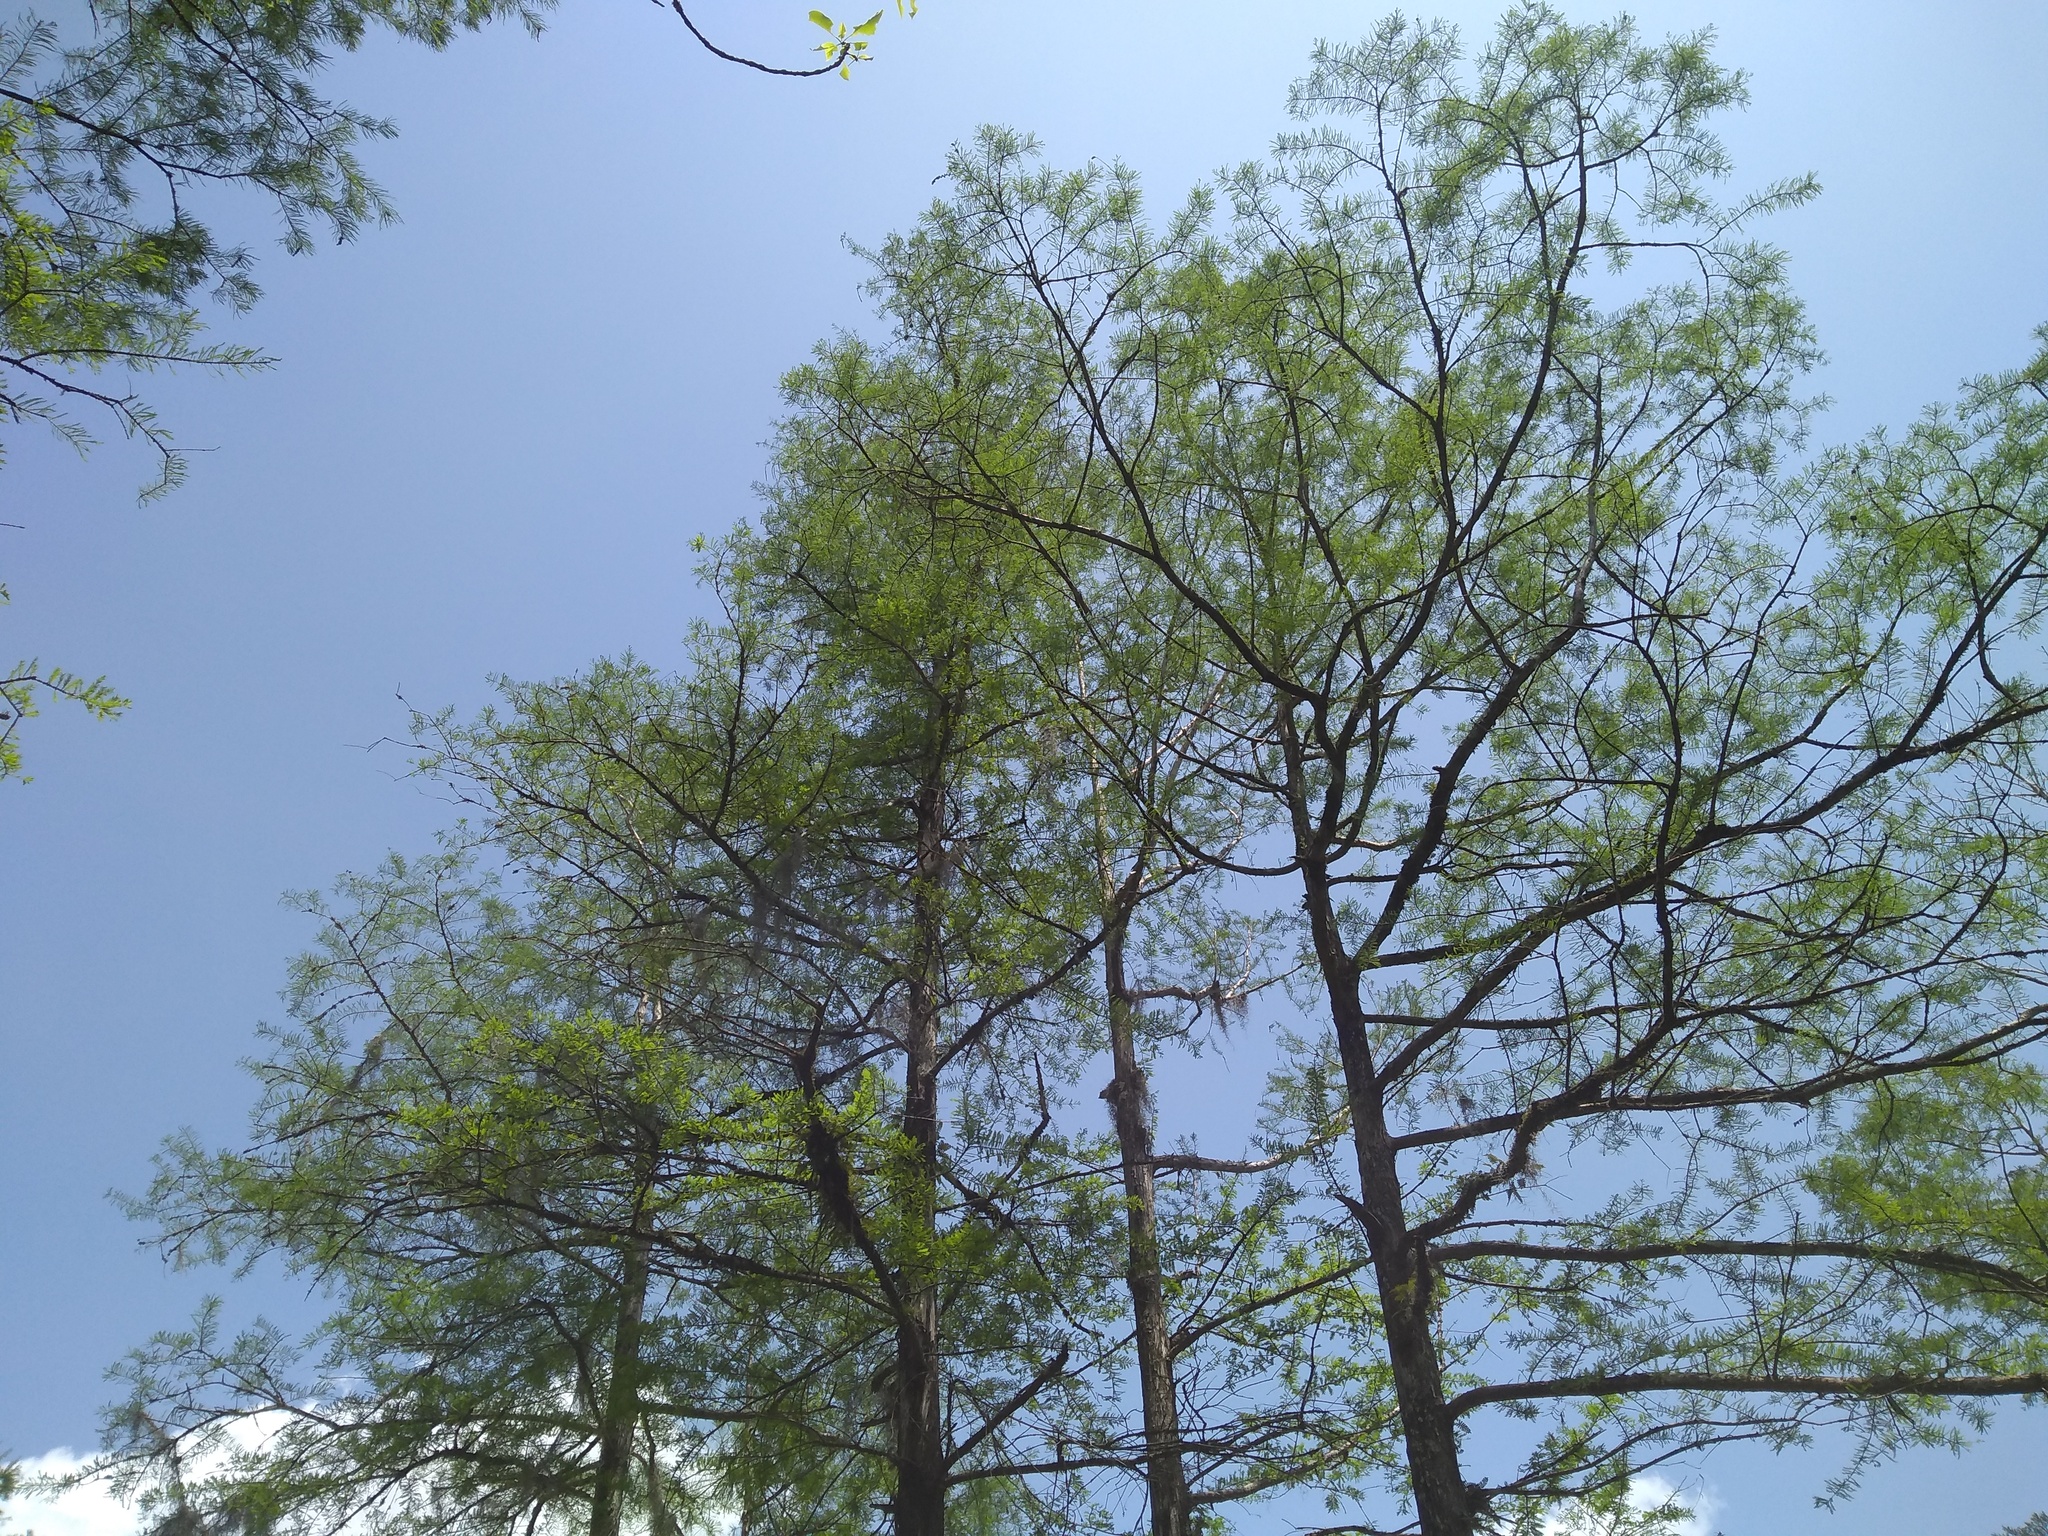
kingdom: Plantae
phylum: Tracheophyta
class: Pinopsida
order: Pinales
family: Cupressaceae
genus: Taxodium
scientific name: Taxodium distichum
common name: Bald cypress
